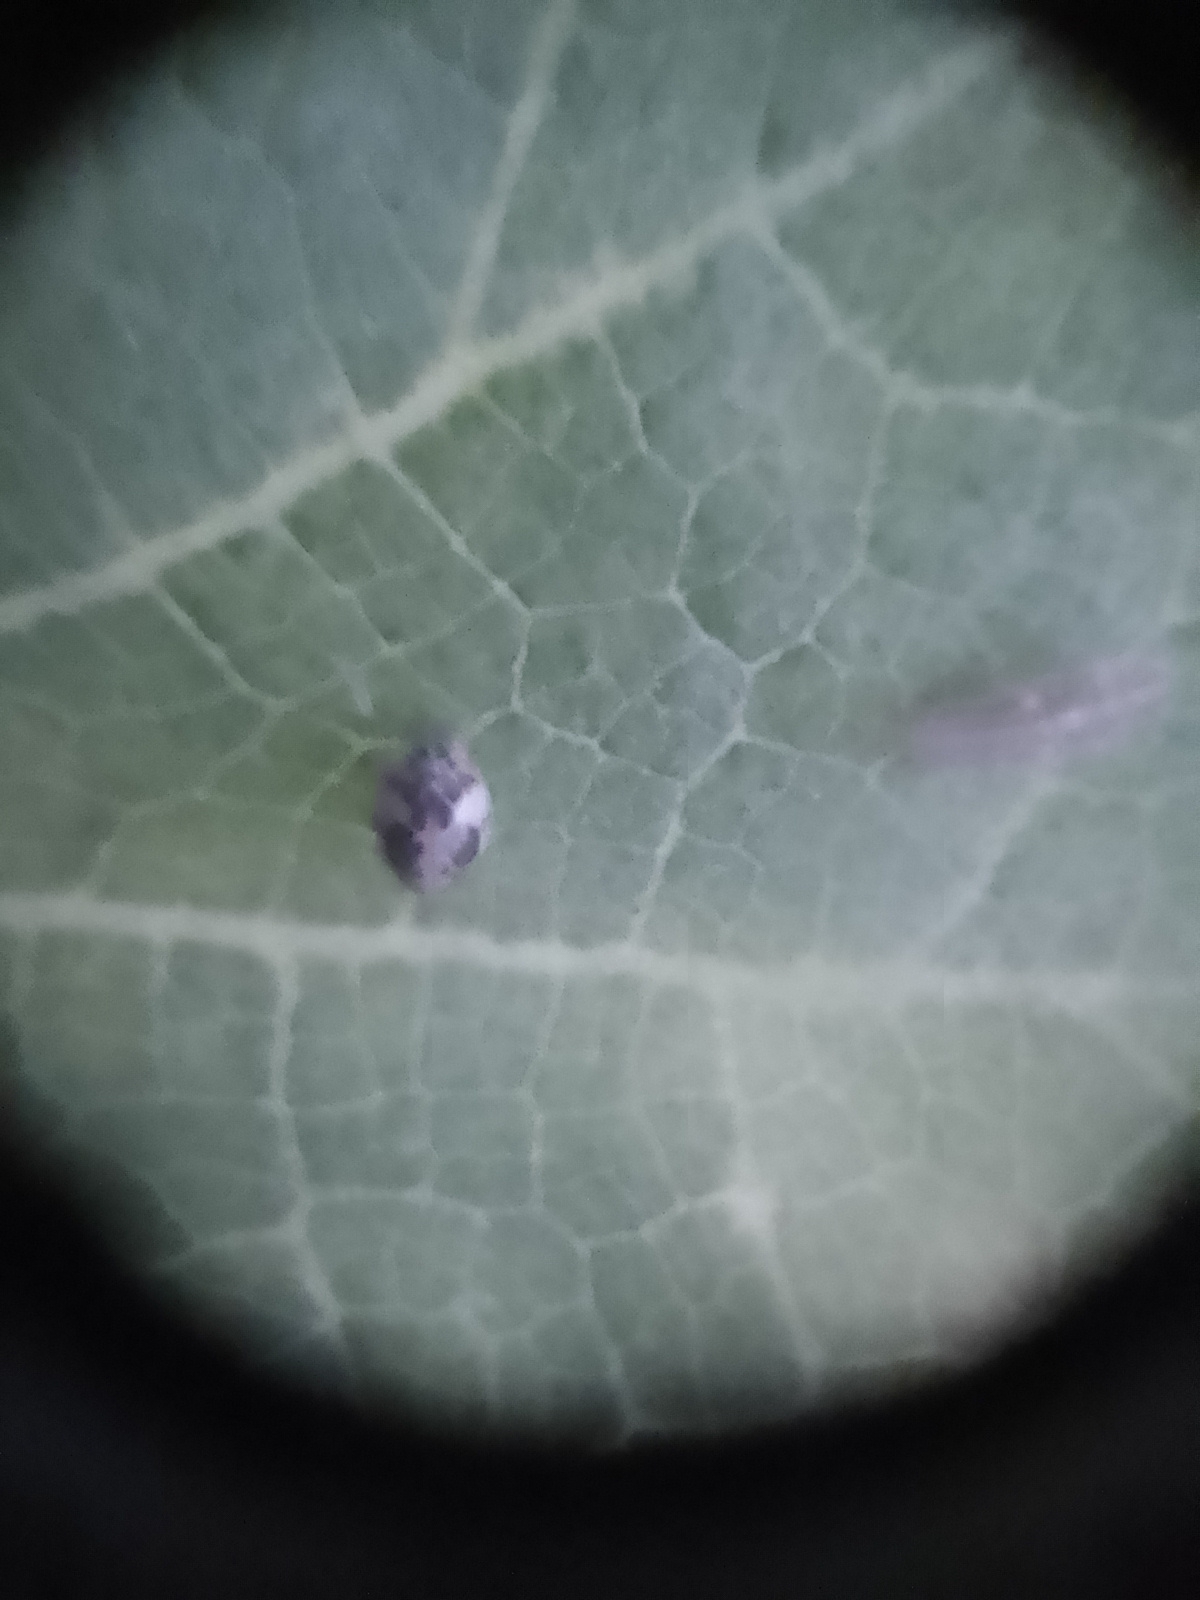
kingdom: Animalia
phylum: Arthropoda
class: Insecta
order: Coleoptera
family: Coccinellidae
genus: Psyllobora
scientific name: Psyllobora
